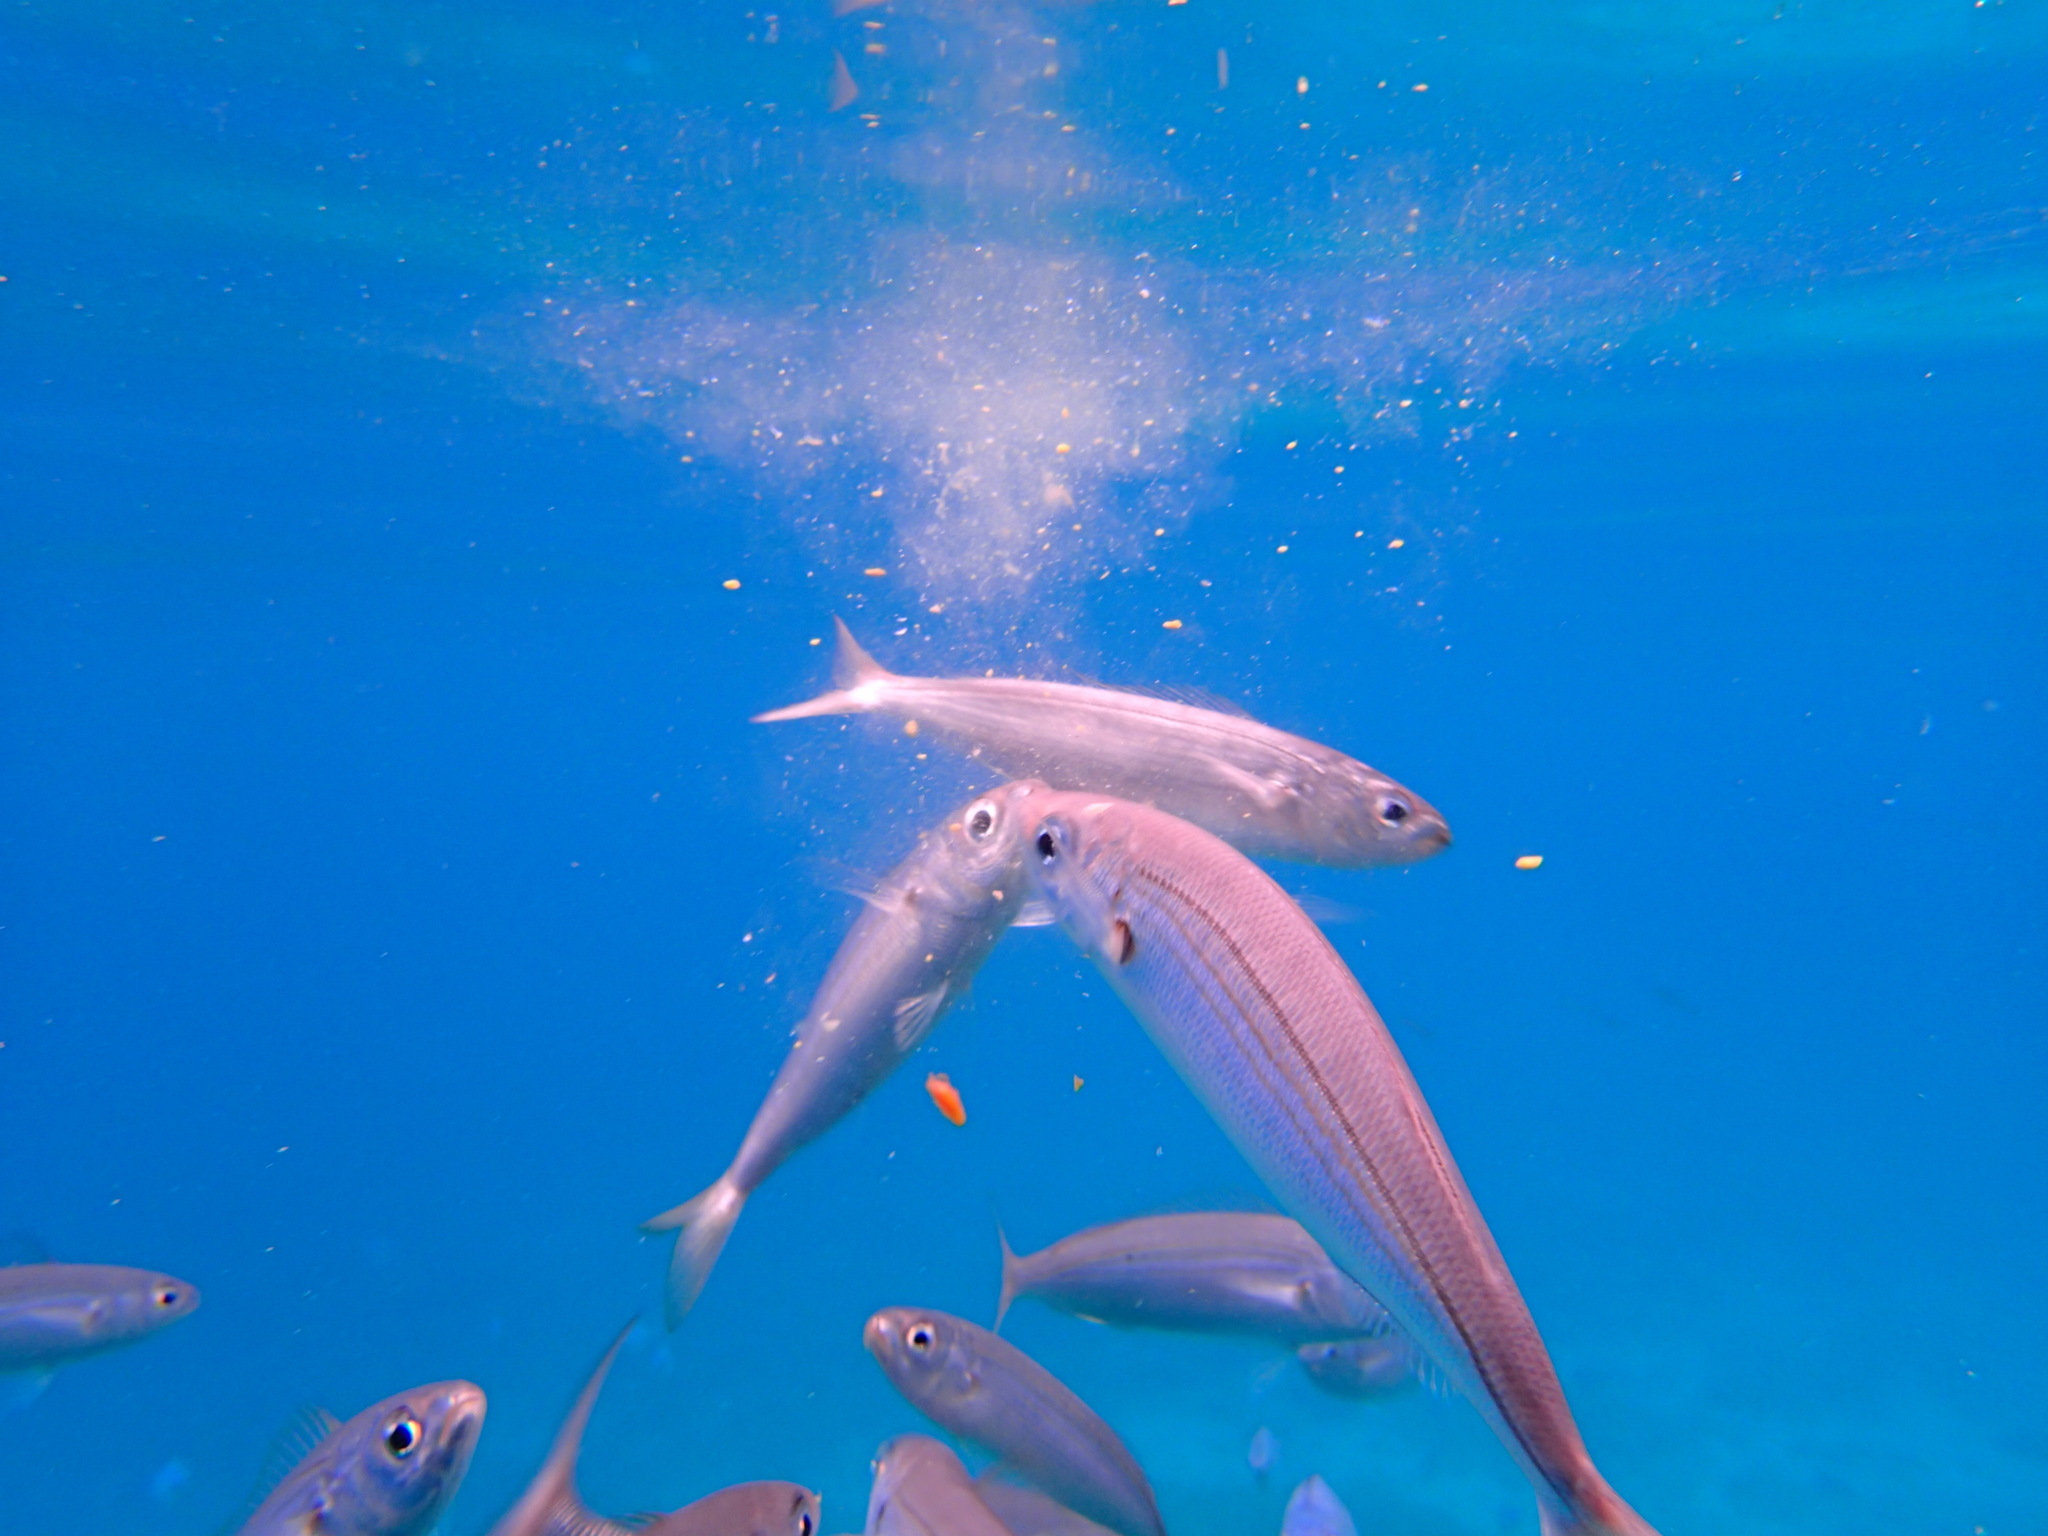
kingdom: Animalia
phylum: Chordata
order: Perciformes
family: Sparidae
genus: Boops
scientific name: Boops boops
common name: Bogue
